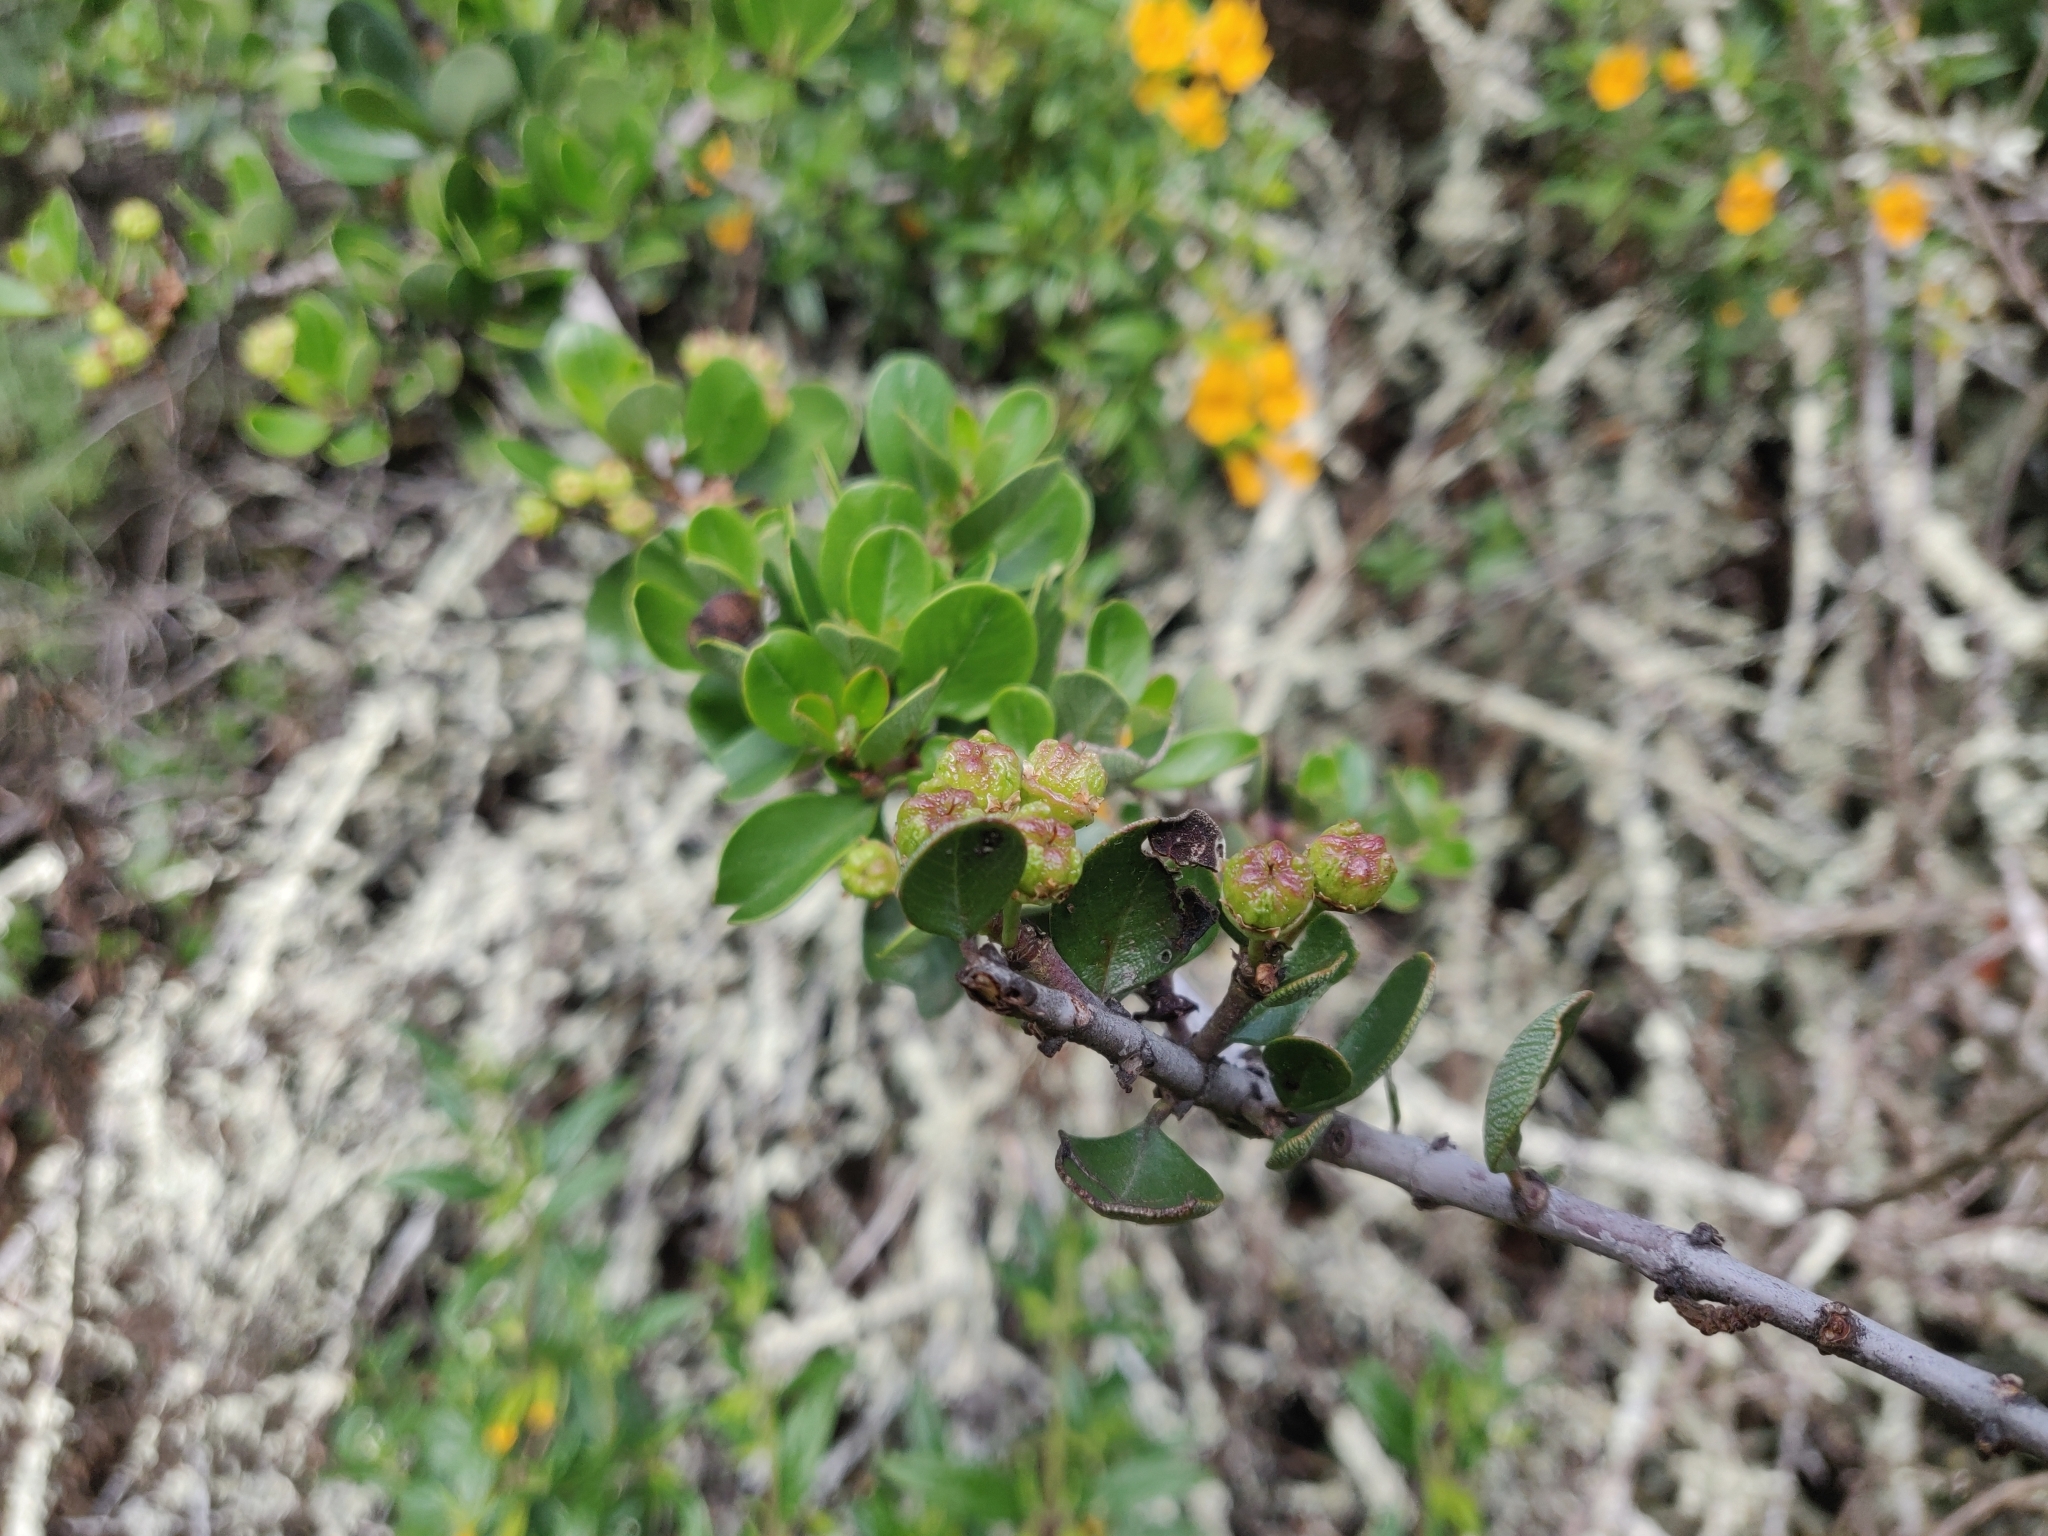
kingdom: Plantae
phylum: Tracheophyta
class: Magnoliopsida
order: Rosales
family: Rhamnaceae
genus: Ceanothus
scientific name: Ceanothus cuneatus
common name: Cuneate ceanothus
